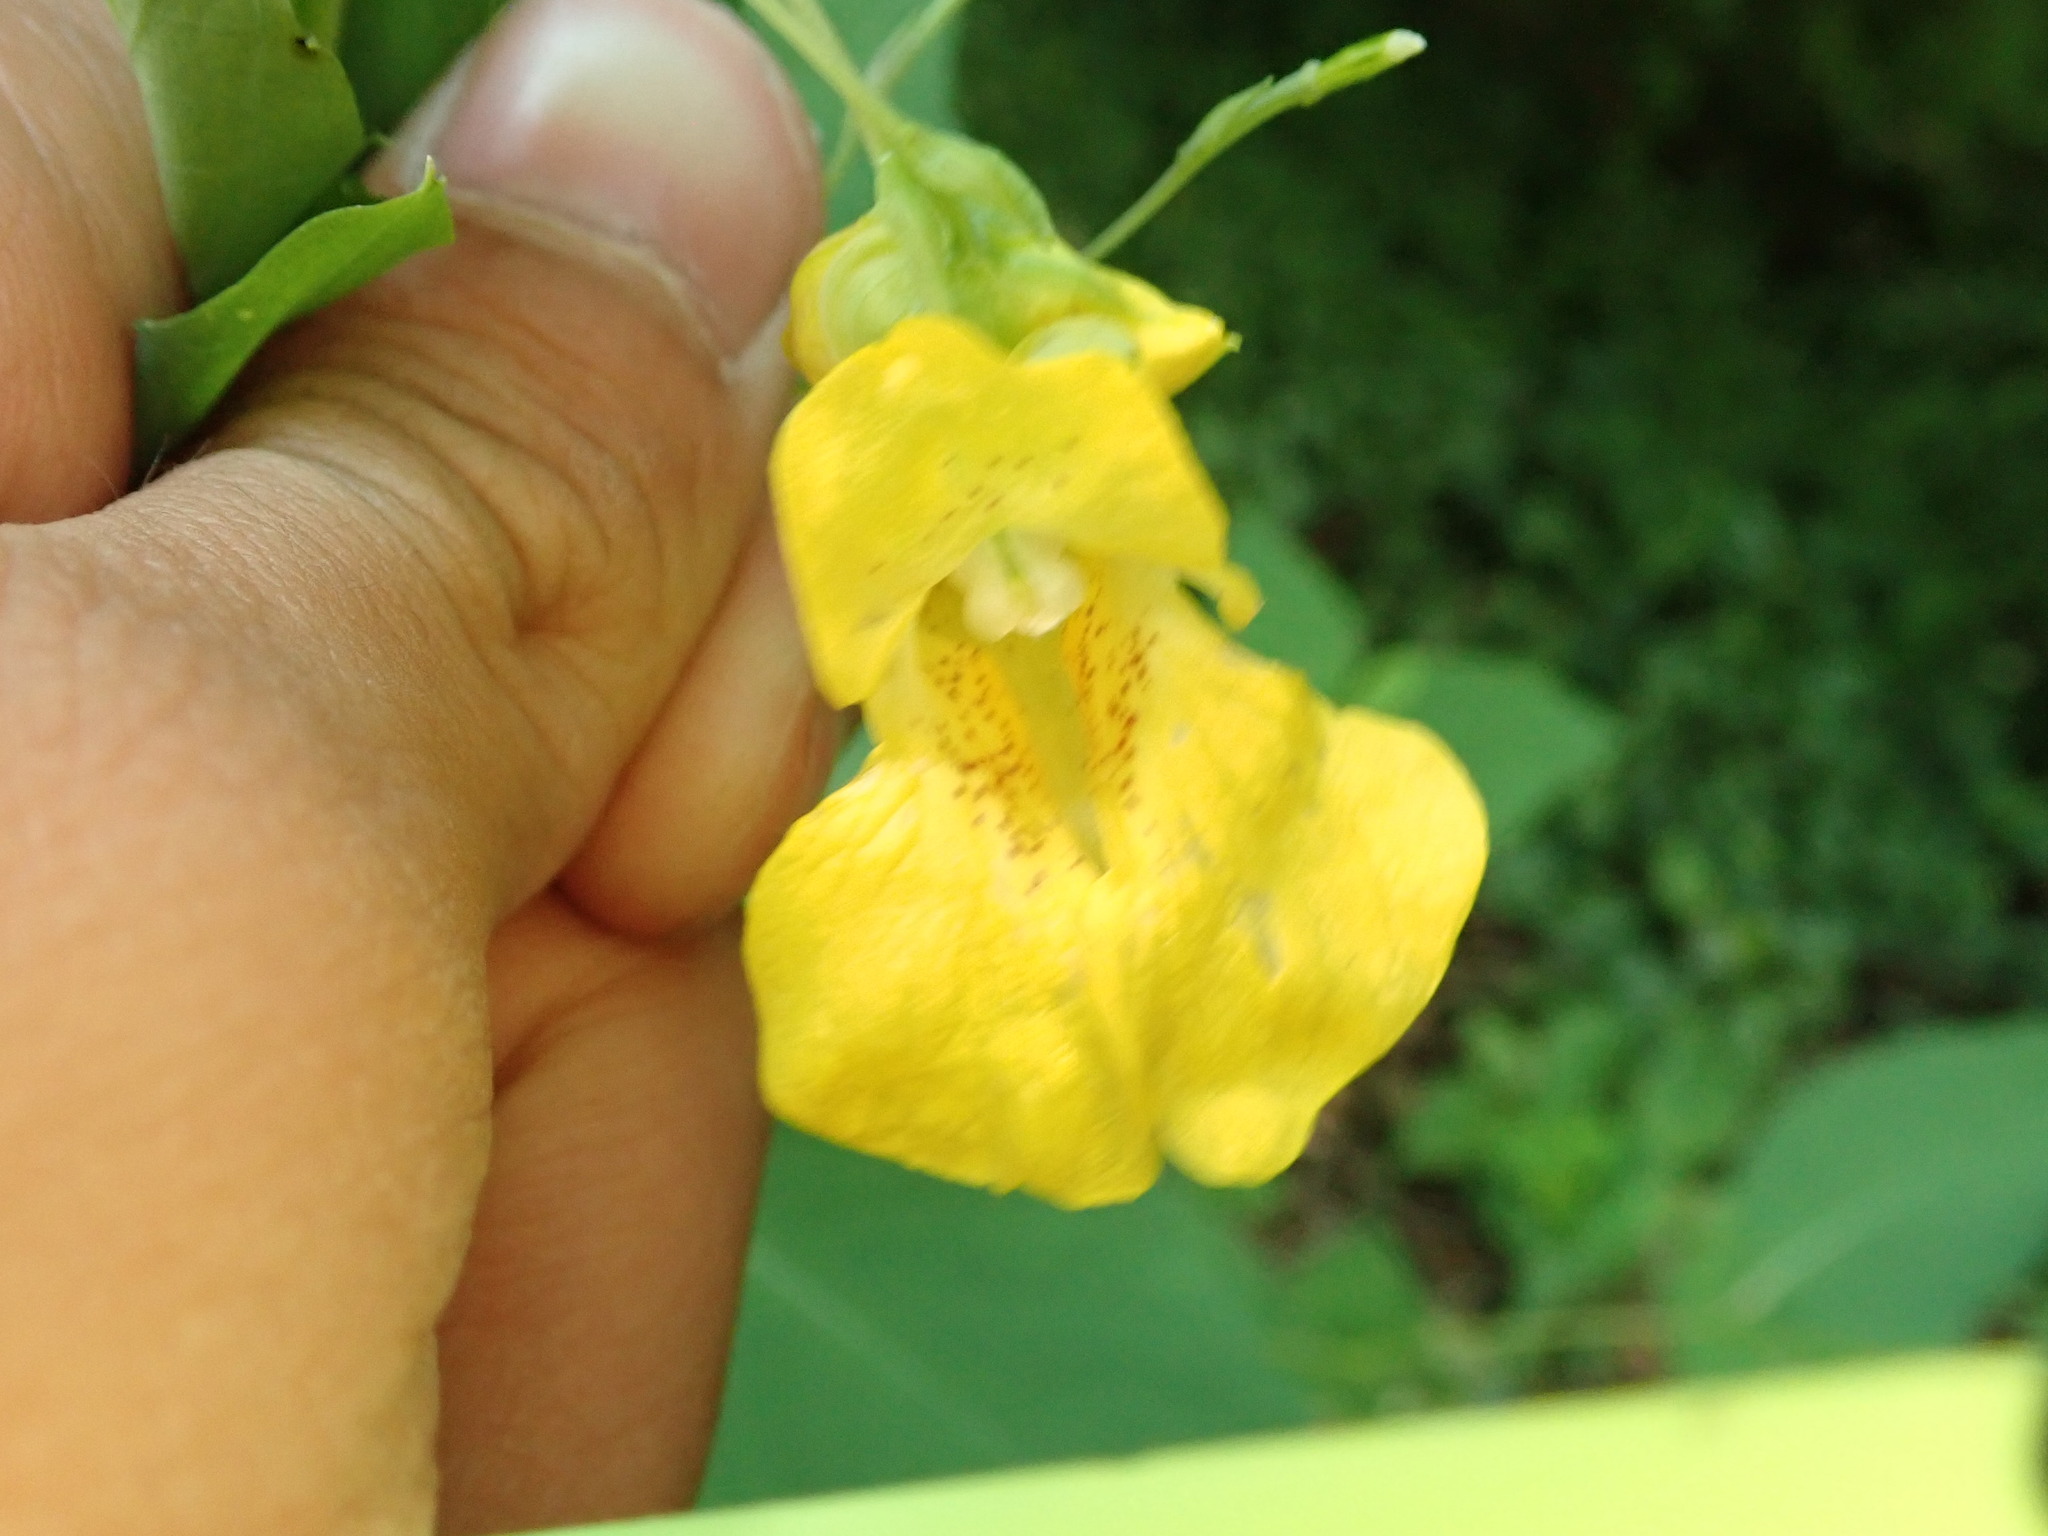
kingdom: Plantae
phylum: Tracheophyta
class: Magnoliopsida
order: Ericales
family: Balsaminaceae
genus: Impatiens
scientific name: Impatiens pallida
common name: Pale snapweed
